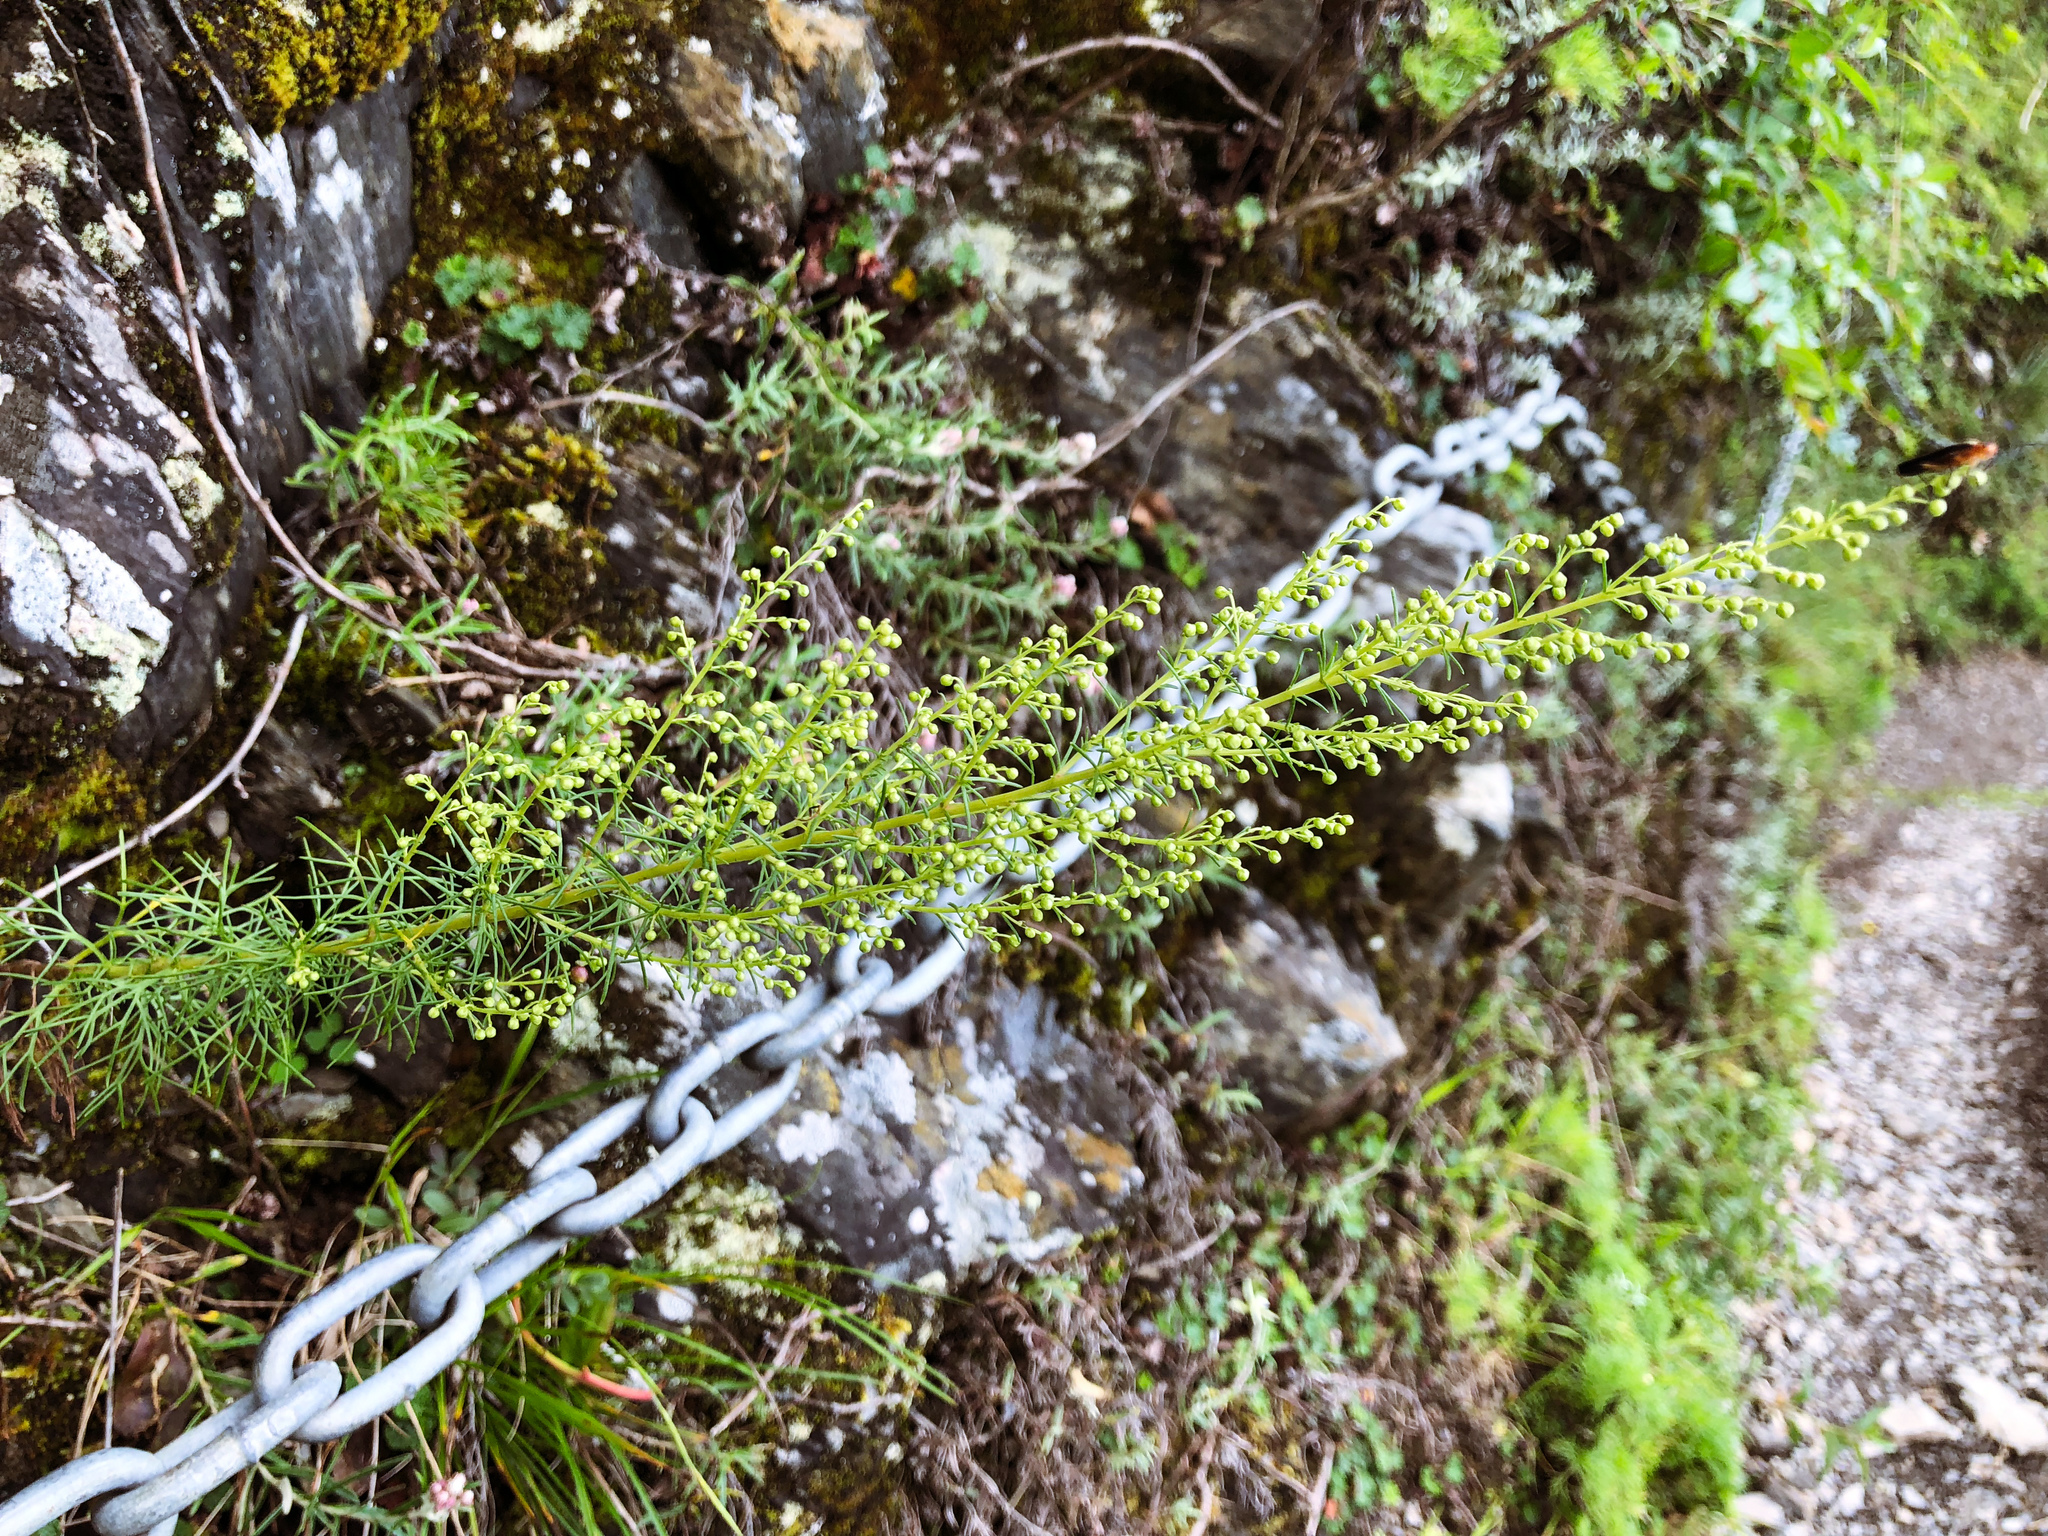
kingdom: Plantae
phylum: Tracheophyta
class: Magnoliopsida
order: Asterales
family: Asteraceae
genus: Artemisia
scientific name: Artemisia morrisonensis
